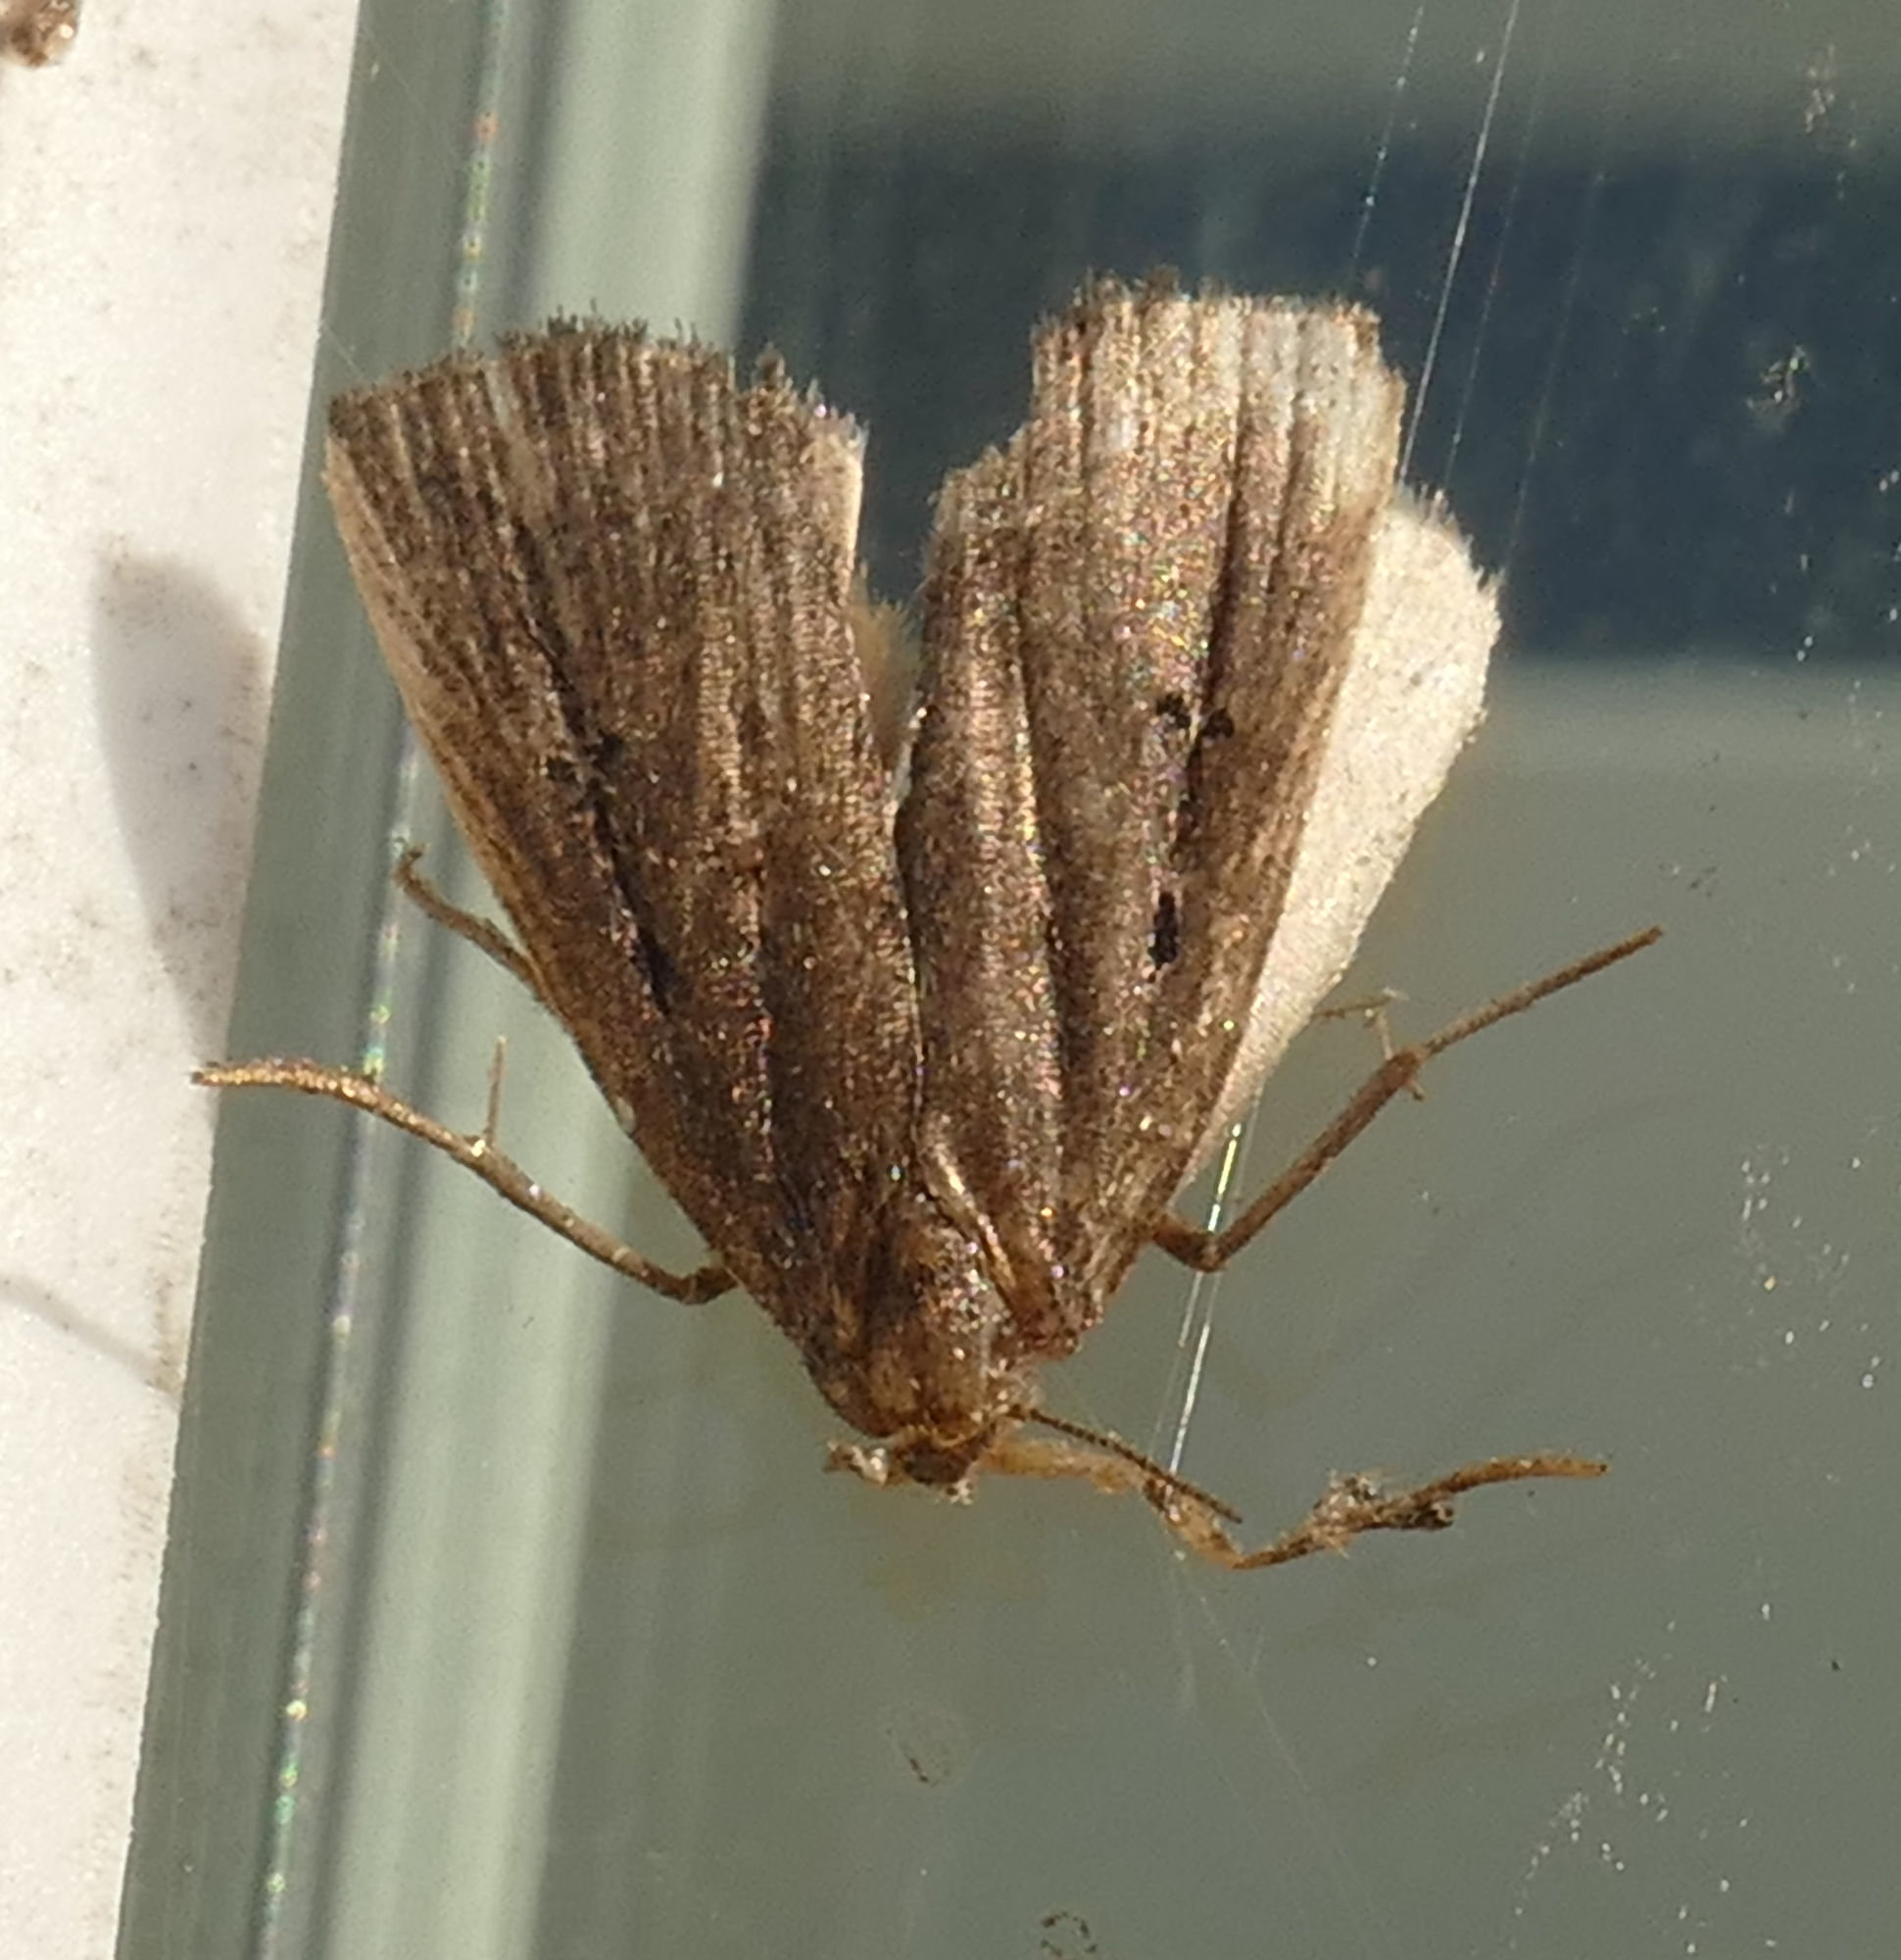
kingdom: Animalia
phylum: Arthropoda
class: Insecta
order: Lepidoptera
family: Erebidae
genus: Macrochilo
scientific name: Macrochilo orciferalis
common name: Bronzy owlet
